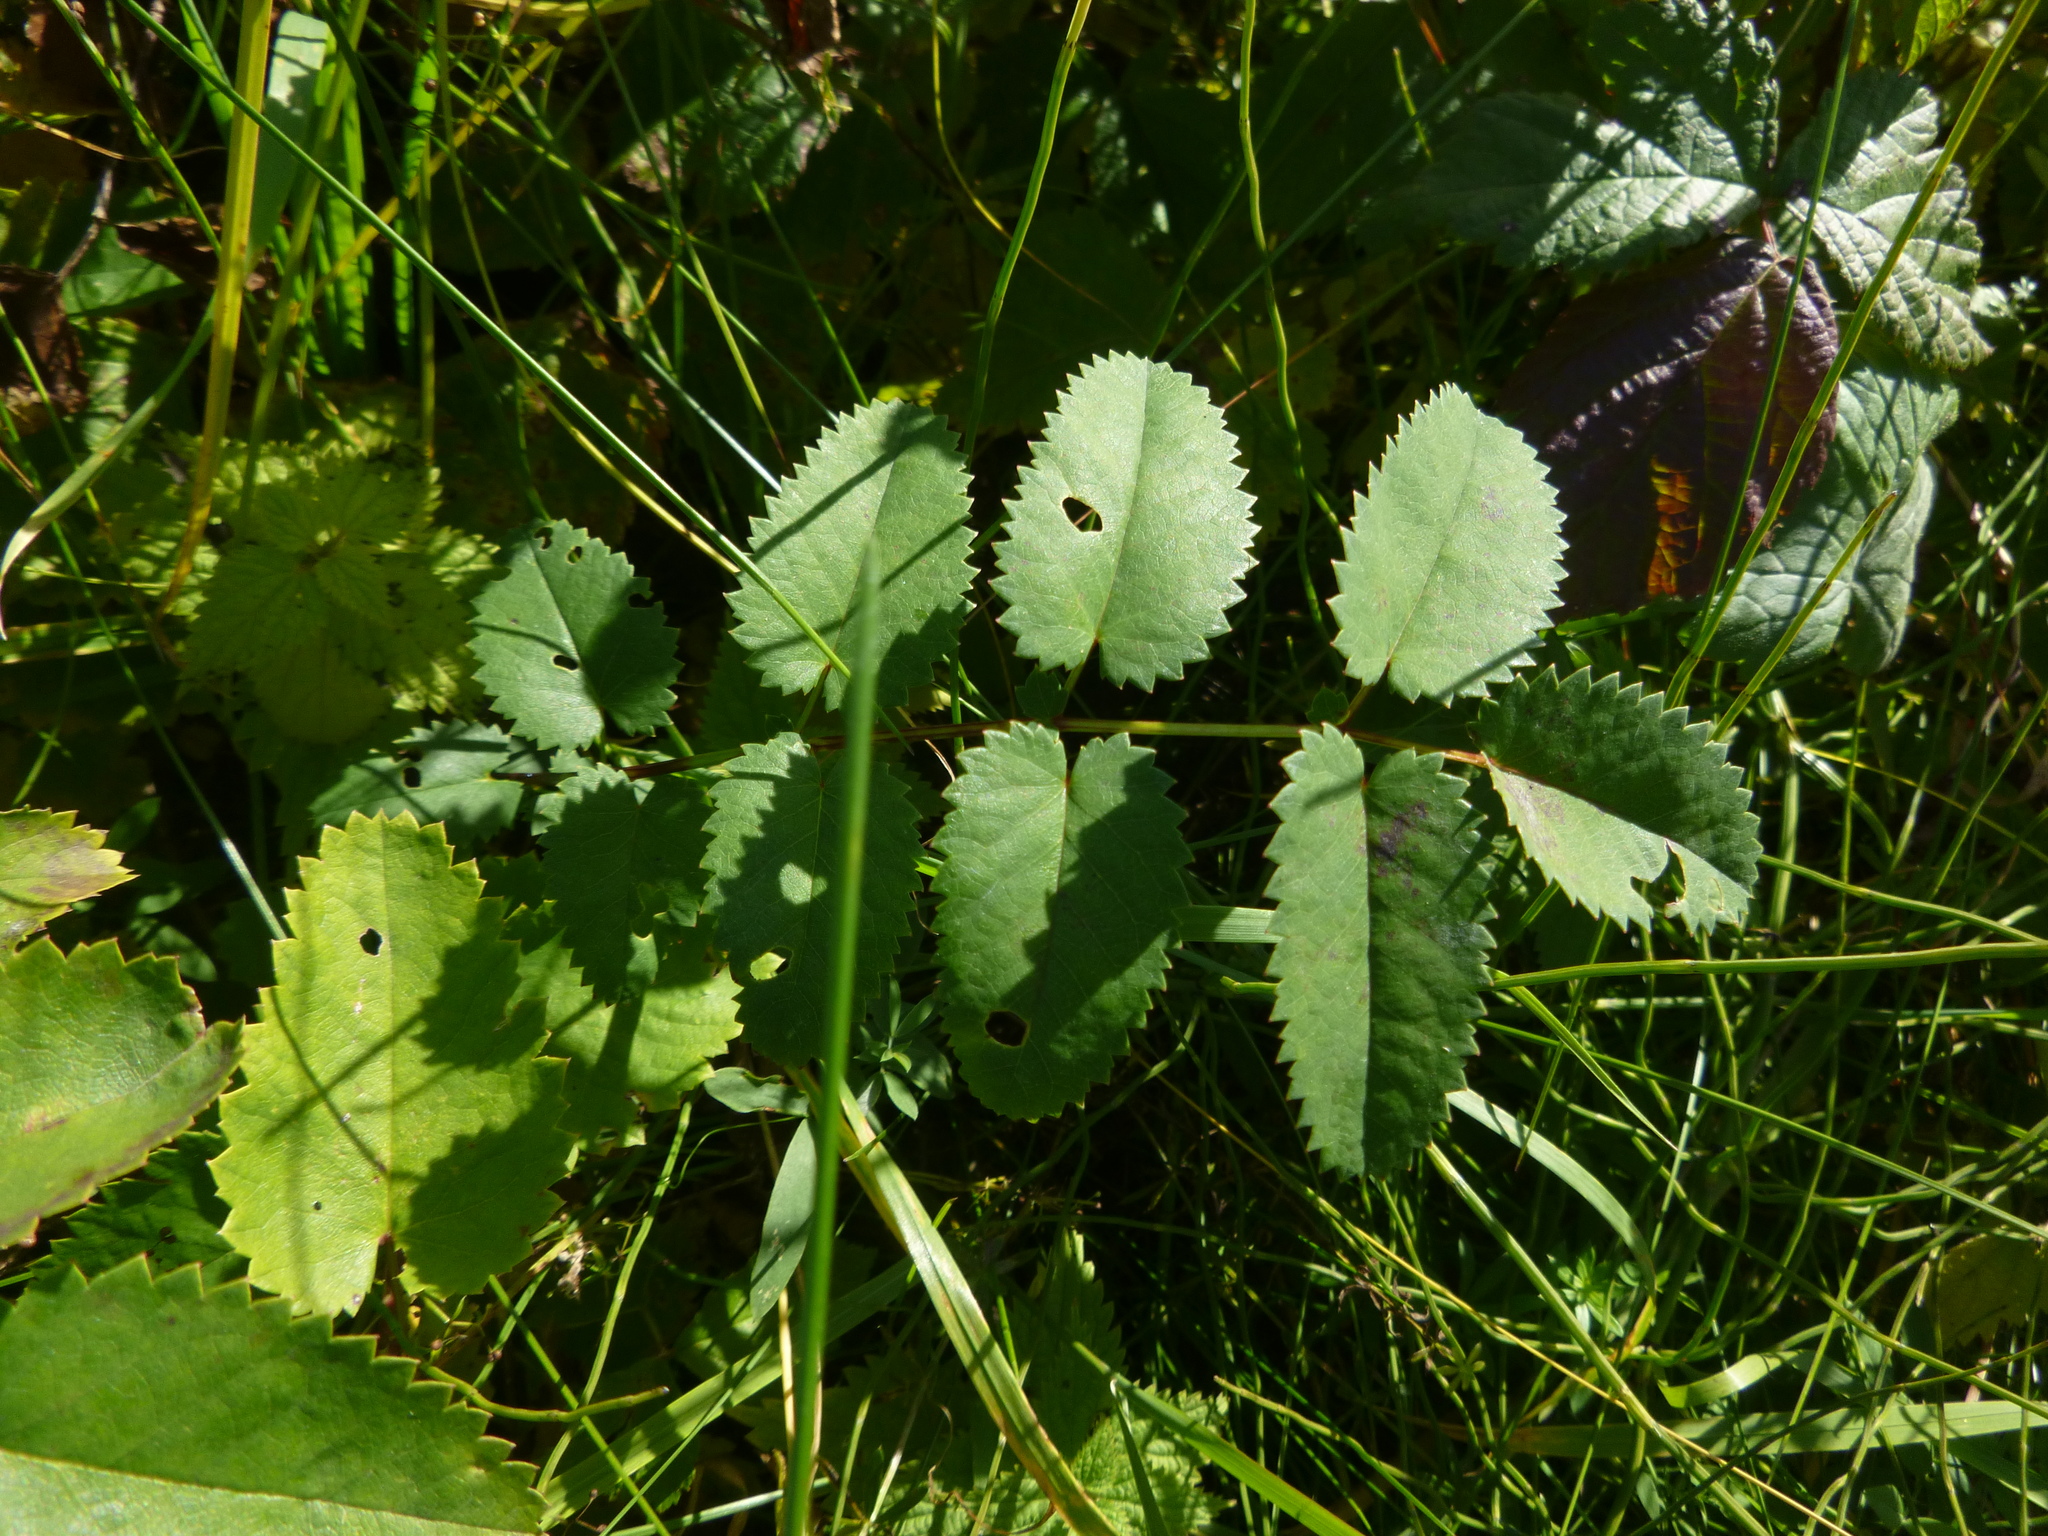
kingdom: Plantae
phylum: Tracheophyta
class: Magnoliopsida
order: Rosales
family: Rosaceae
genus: Sanguisorba
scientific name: Sanguisorba officinalis
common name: Great burnet
